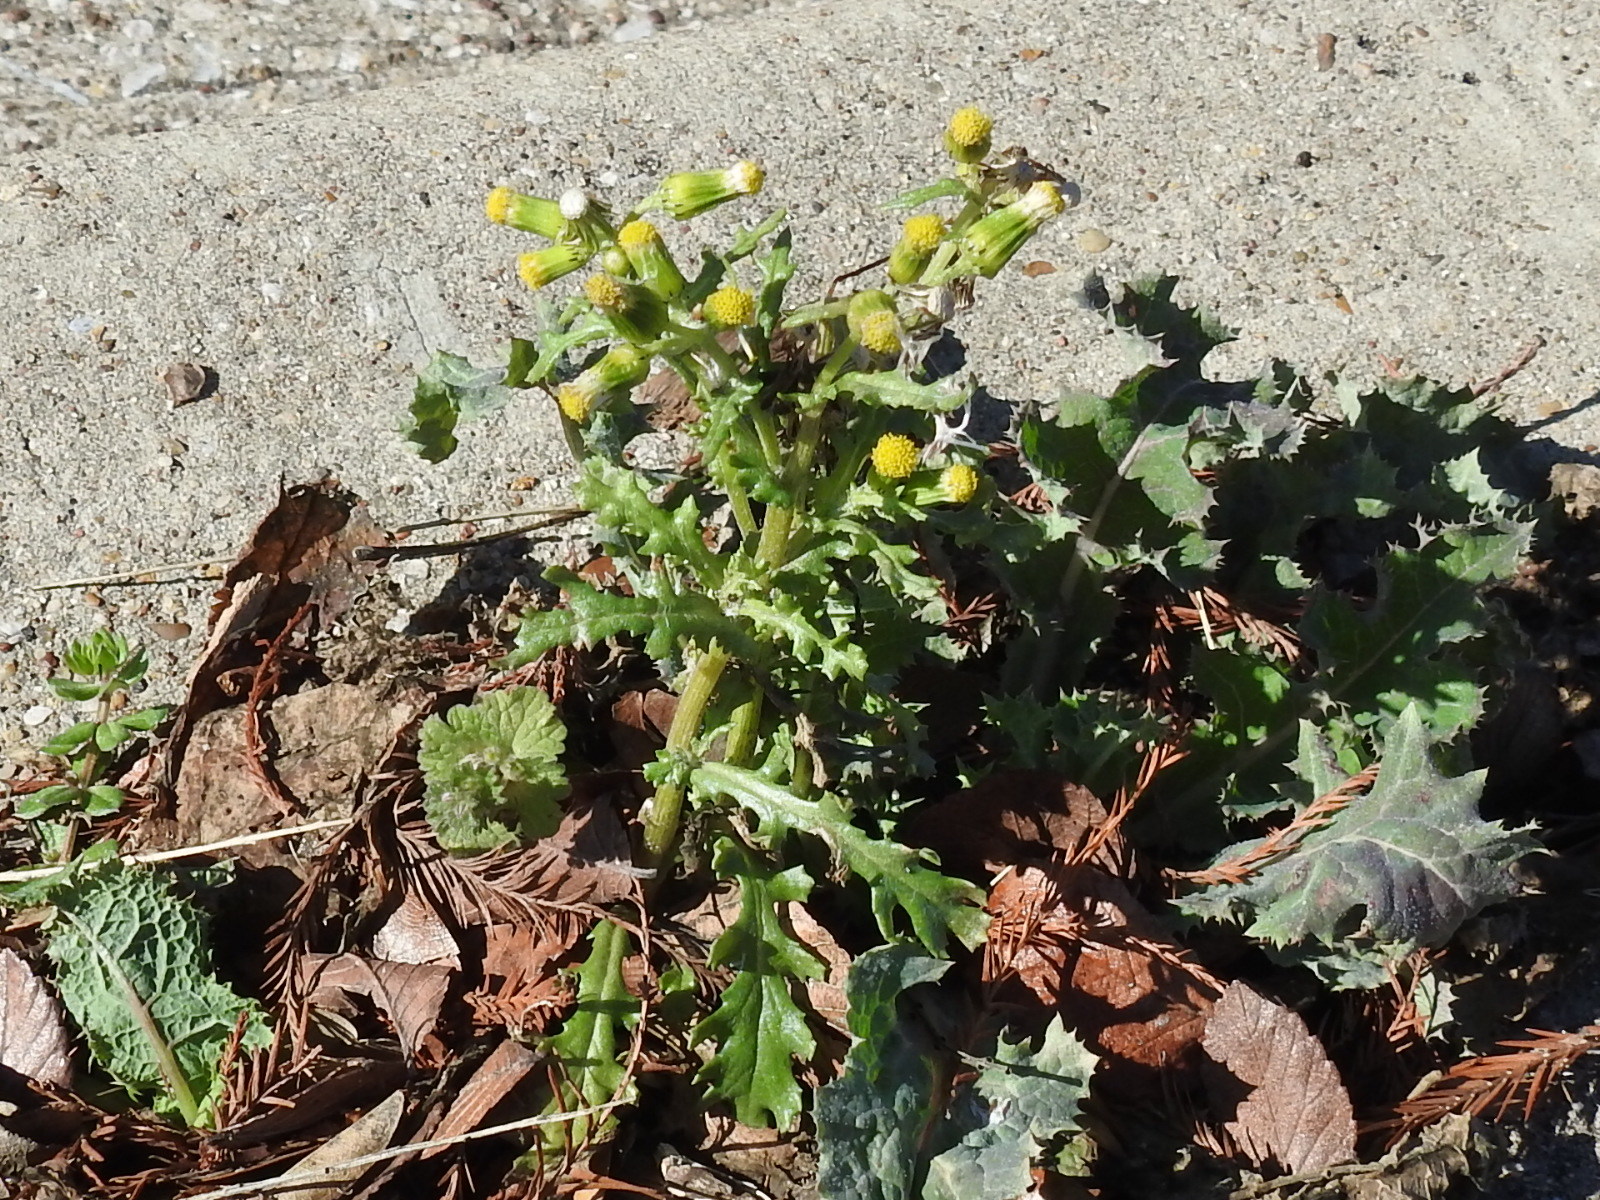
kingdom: Plantae
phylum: Tracheophyta
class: Magnoliopsida
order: Asterales
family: Asteraceae
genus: Senecio
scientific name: Senecio vulgaris
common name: Old-man-in-the-spring
